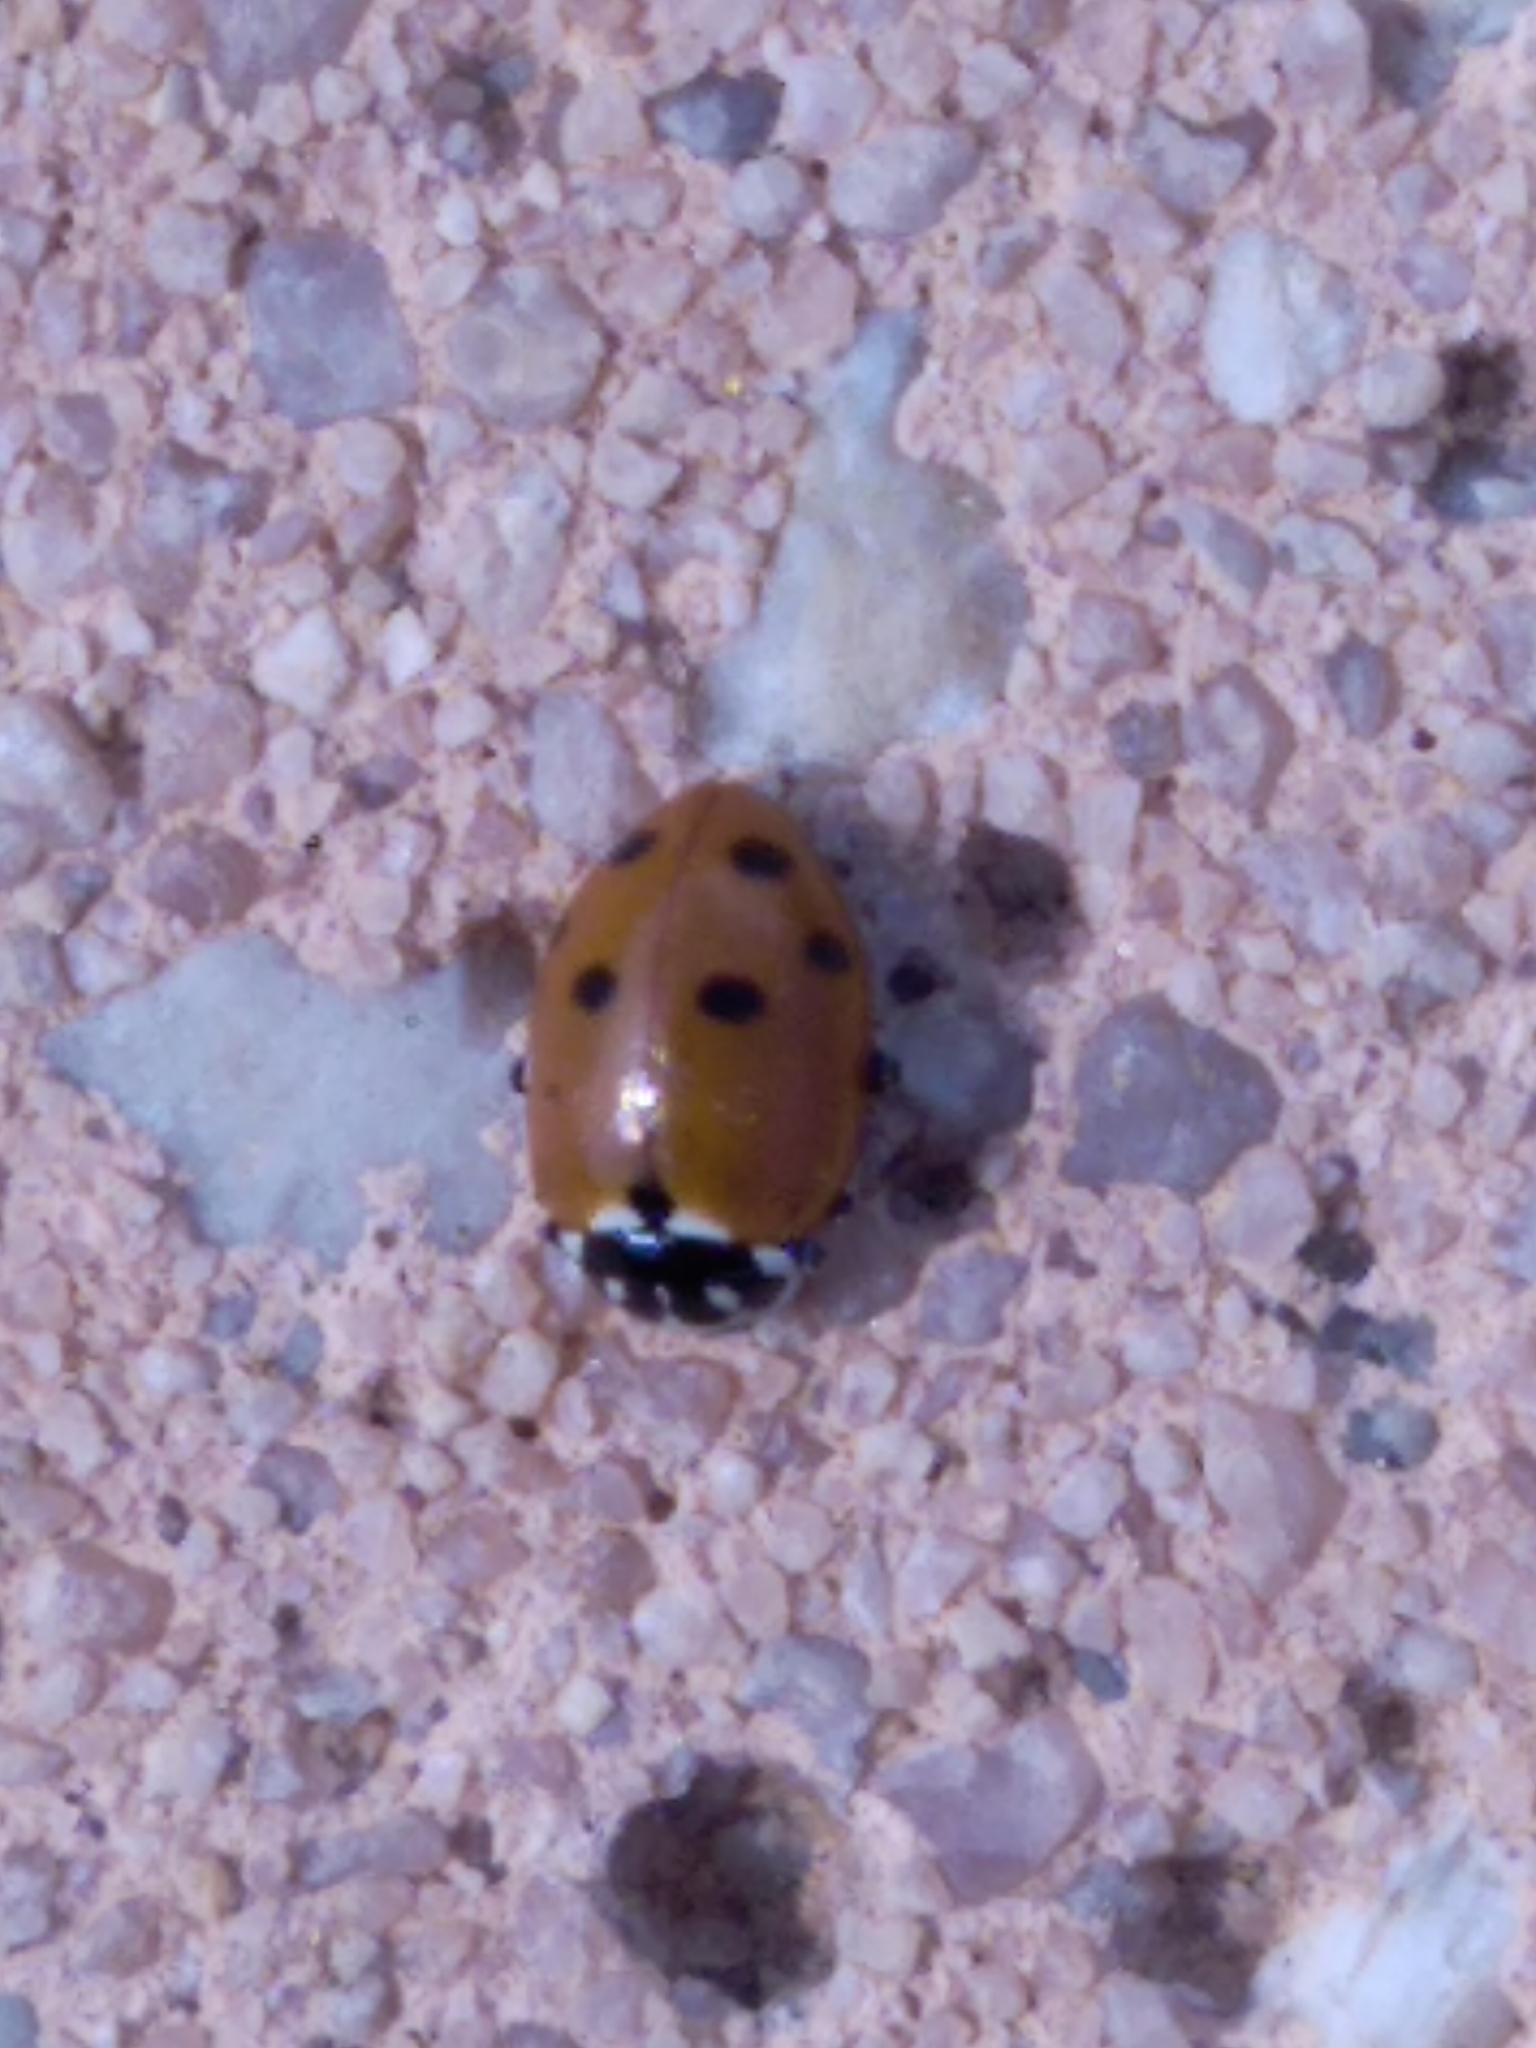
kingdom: Animalia
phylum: Arthropoda
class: Insecta
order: Coleoptera
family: Coccinellidae
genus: Hippodamia
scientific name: Hippodamia variegata
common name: Ladybird beetle
